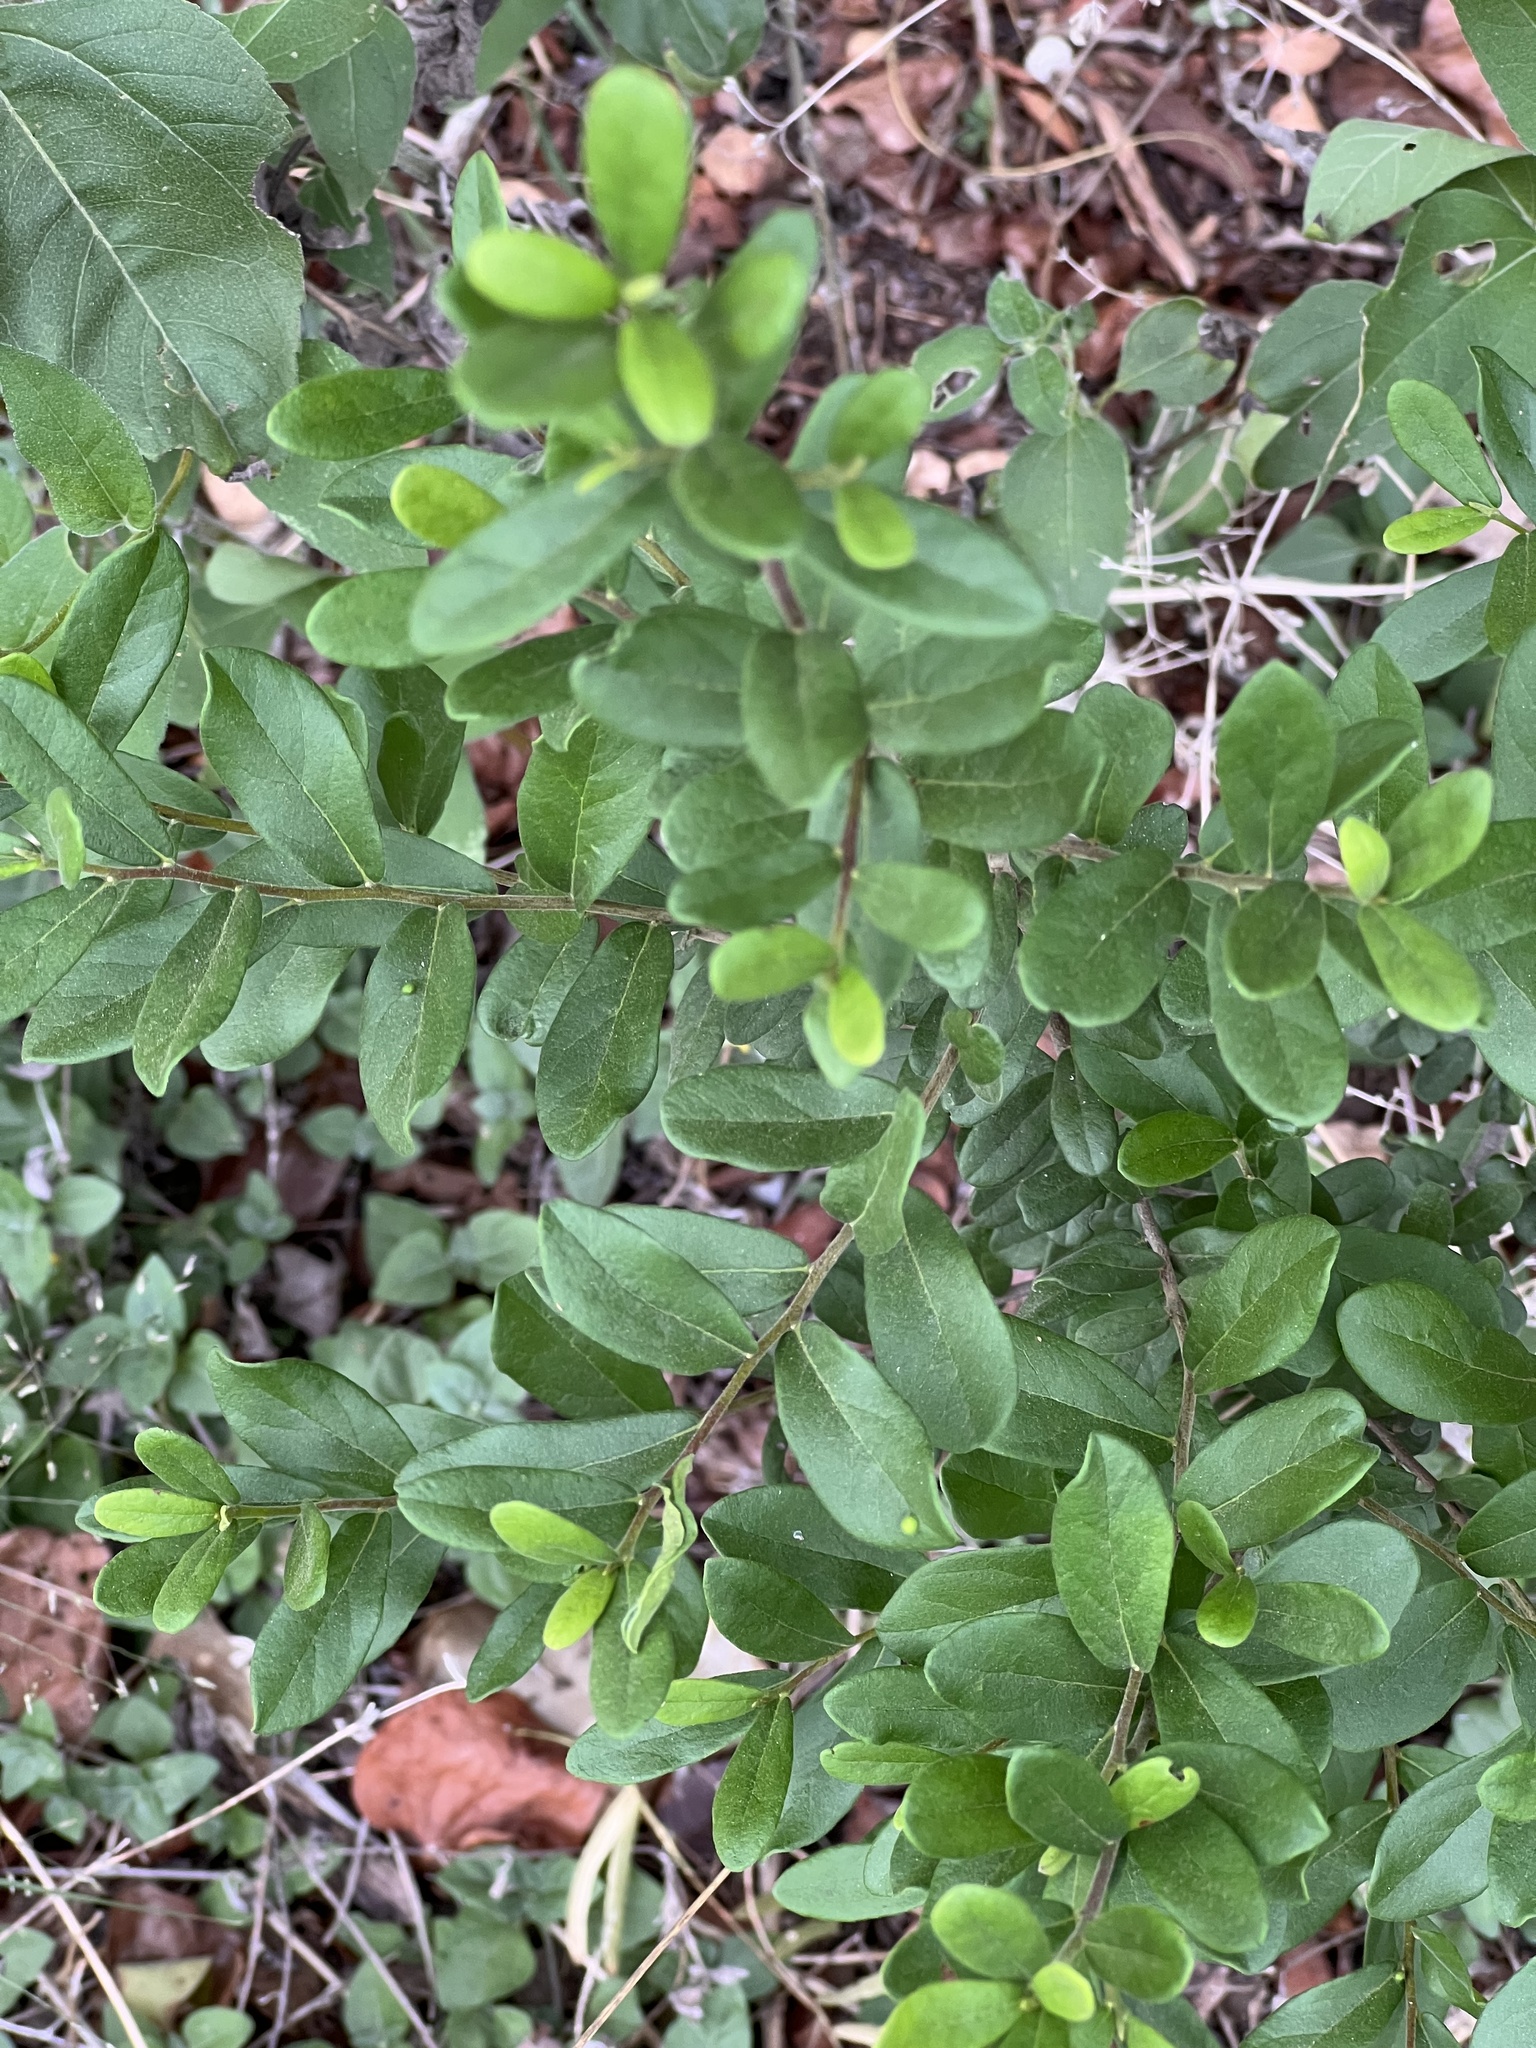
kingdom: Plantae
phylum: Tracheophyta
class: Magnoliopsida
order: Ericales
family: Ebenaceae
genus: Diospyros
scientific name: Diospyros texana
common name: Texas persimmon
